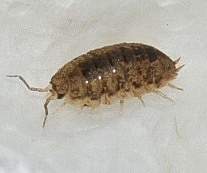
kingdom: Animalia
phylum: Arthropoda
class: Malacostraca
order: Isopoda
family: Alloniscidae
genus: Alloniscus
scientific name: Alloniscus oahuensis
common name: Pillbug
